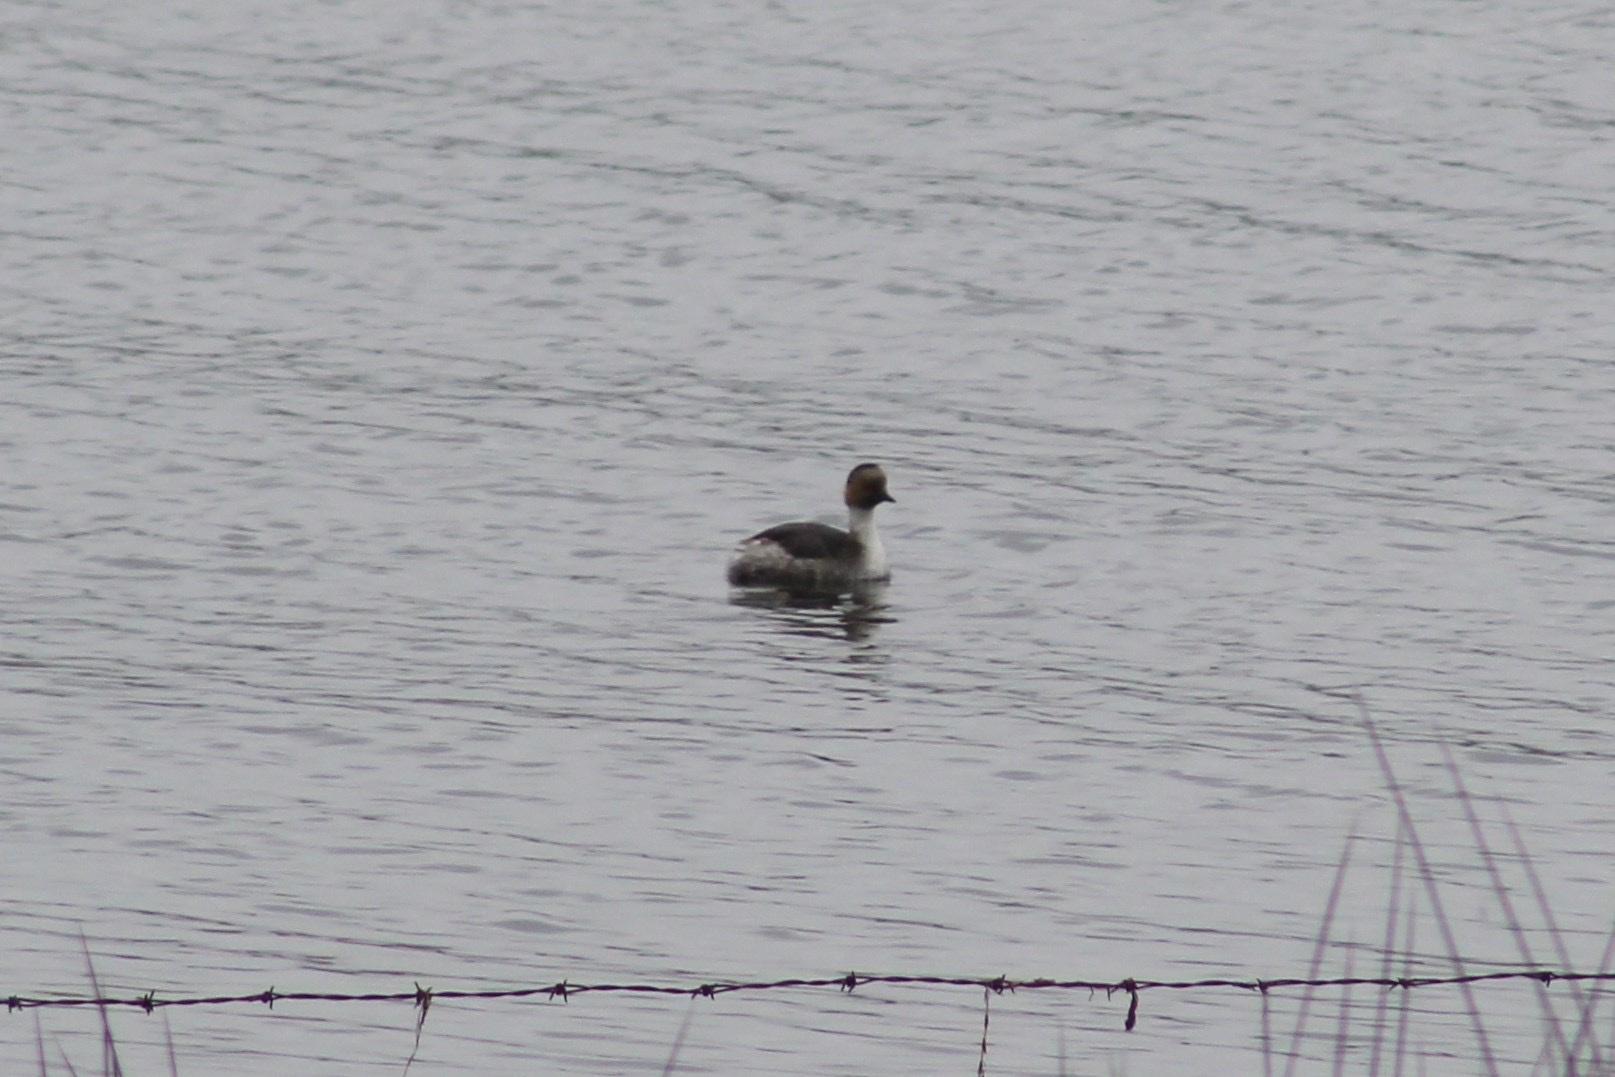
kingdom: Animalia
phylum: Chordata
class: Aves
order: Podicipediformes
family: Podicipedidae
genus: Podiceps
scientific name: Podiceps occipitalis
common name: Silvery grebe
